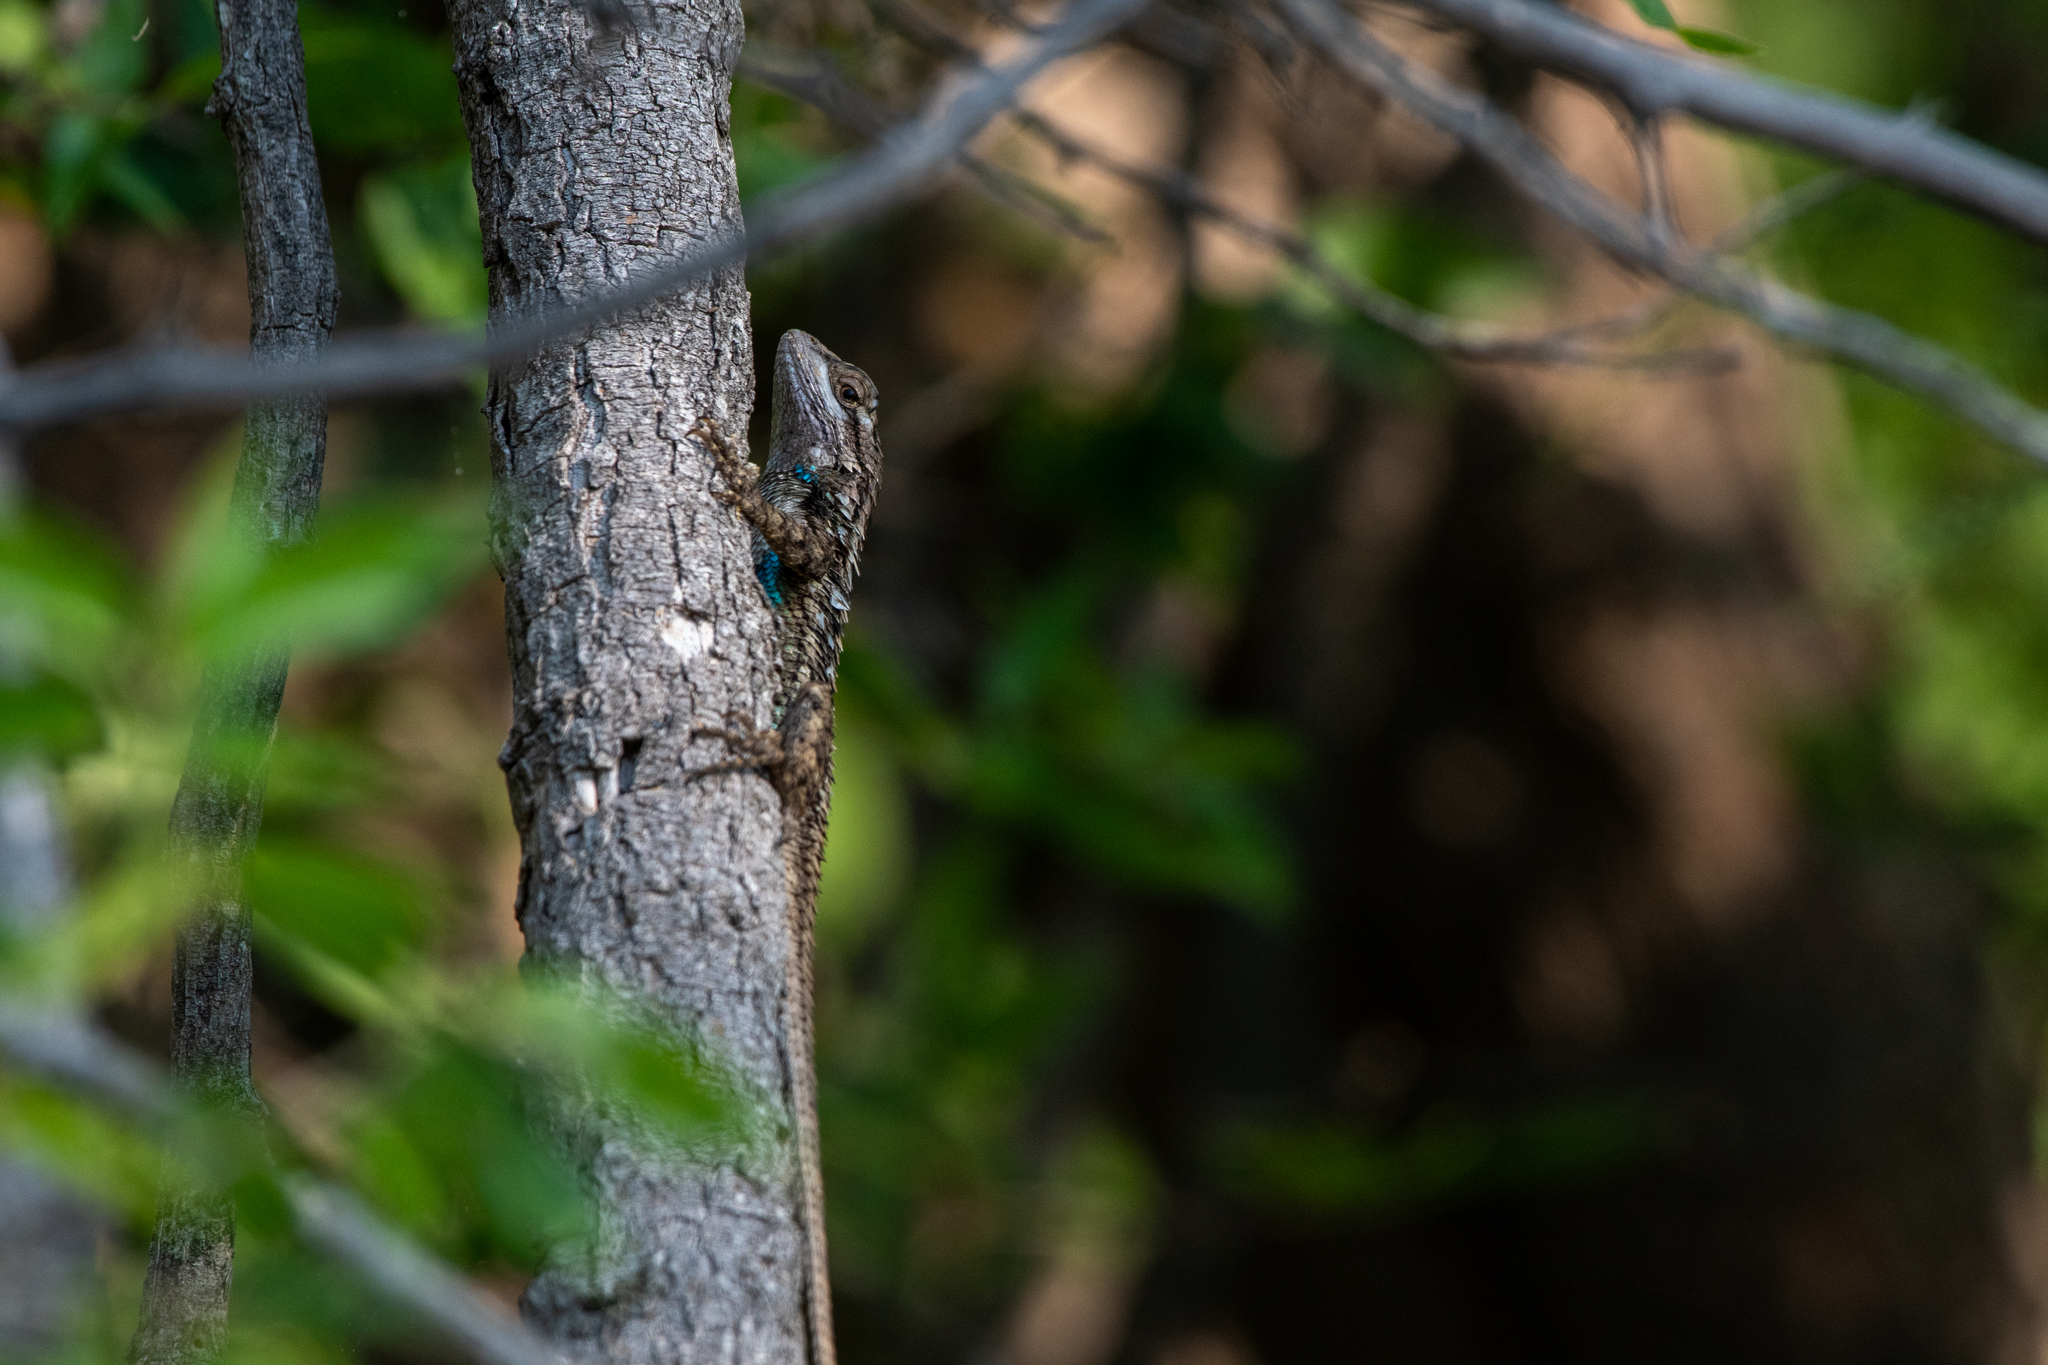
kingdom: Animalia
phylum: Chordata
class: Squamata
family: Phrynosomatidae
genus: Sceloporus
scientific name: Sceloporus olivaceus
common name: Texas spiny lizard
